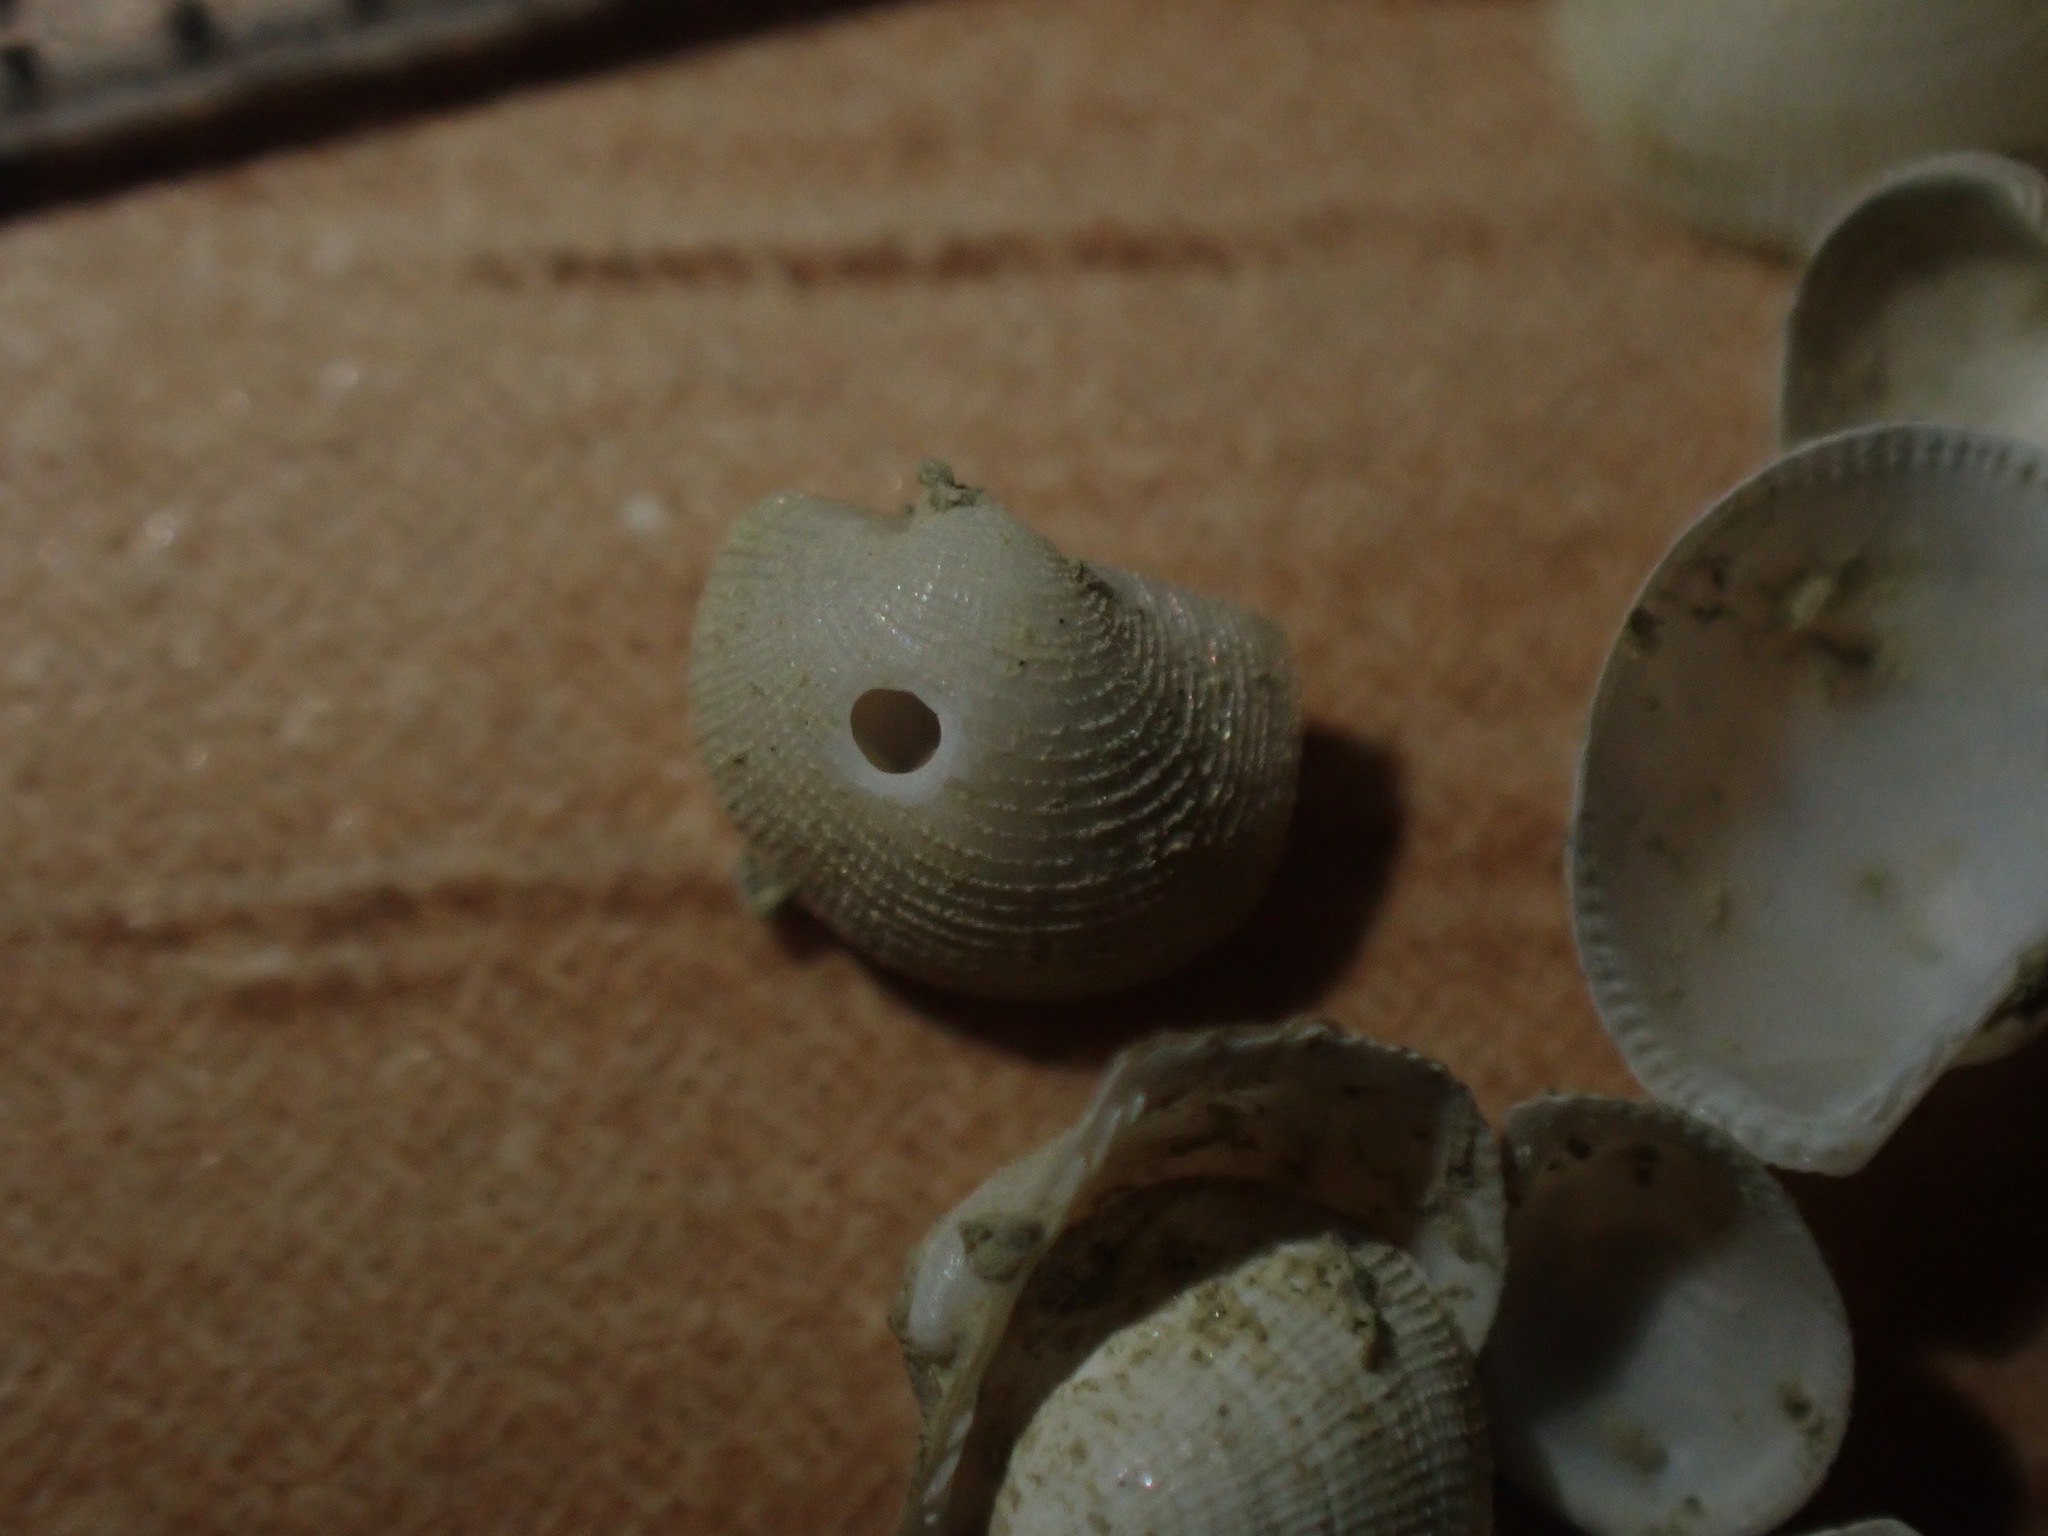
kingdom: Animalia
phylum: Mollusca
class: Bivalvia
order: Arcida
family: Arcidae
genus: Bathyarca
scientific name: Bathyarca cybaea
